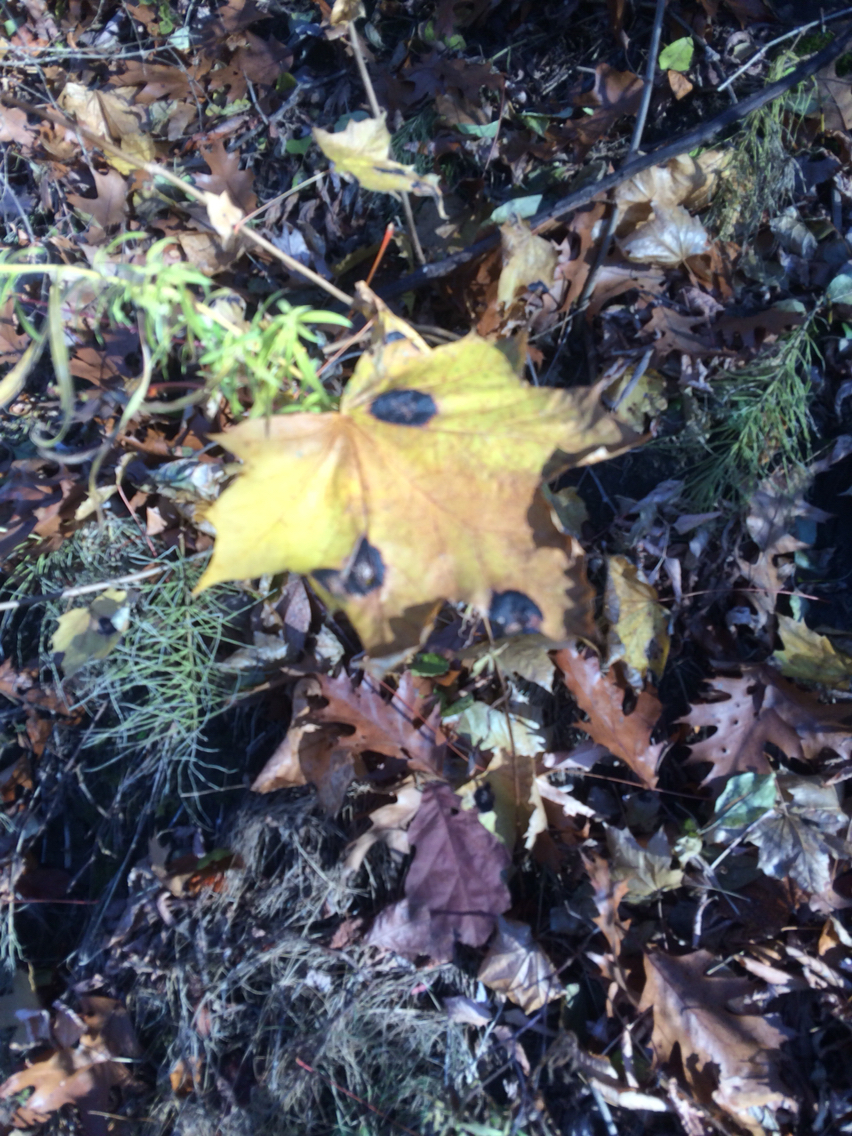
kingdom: Fungi
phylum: Ascomycota
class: Leotiomycetes
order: Rhytismatales
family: Rhytismataceae
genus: Rhytisma
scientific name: Rhytisma acerinum
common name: European tar spot
